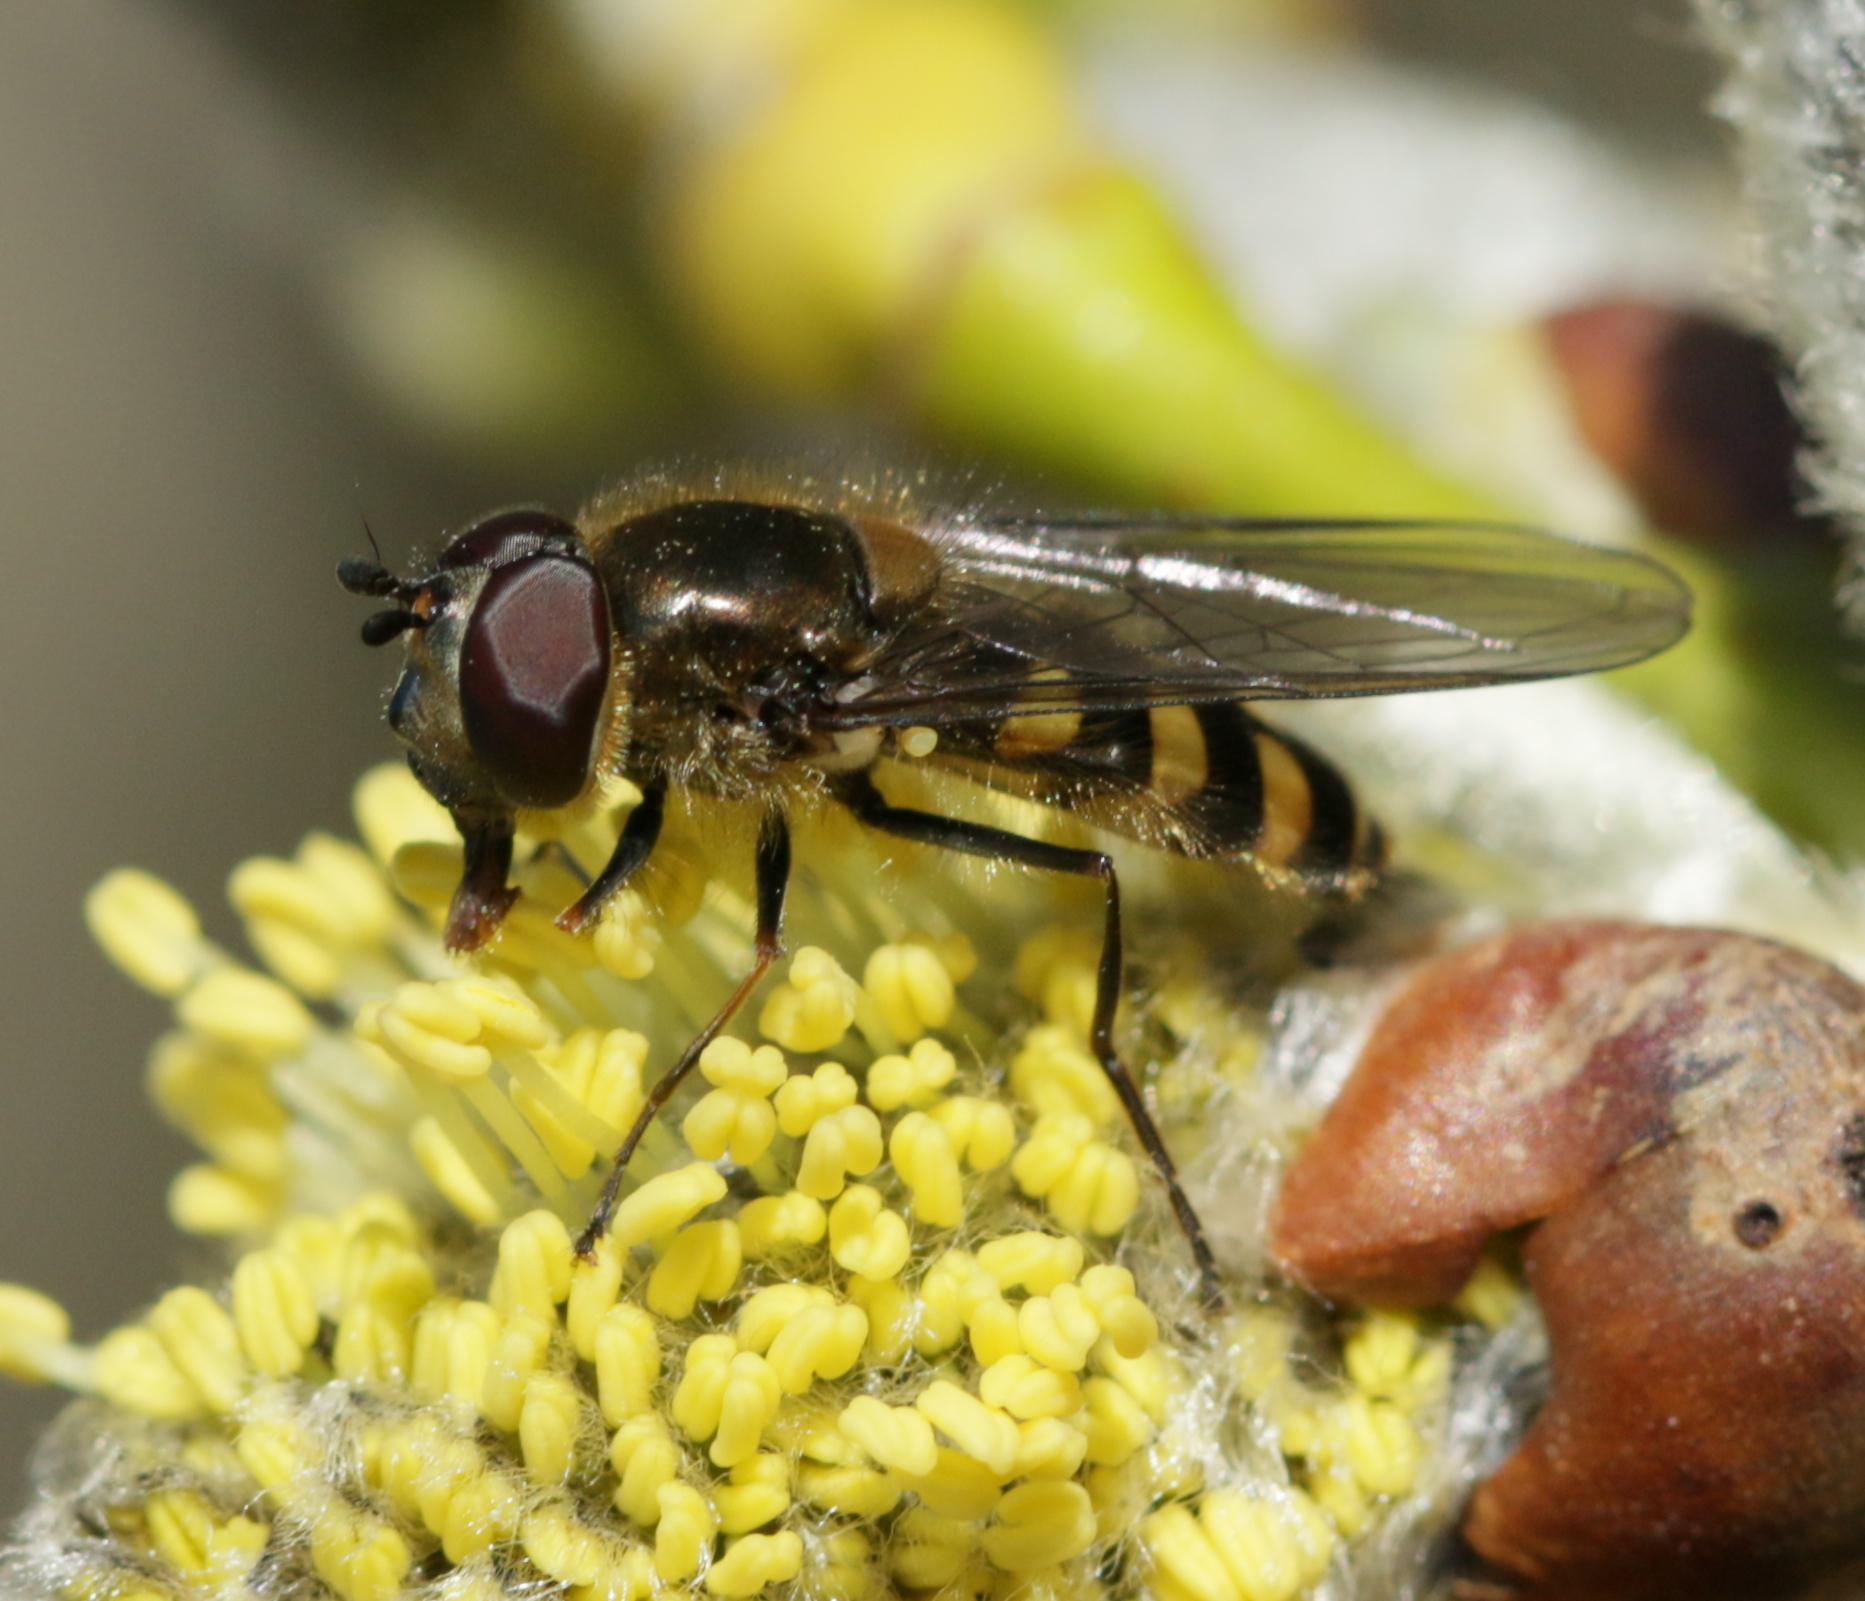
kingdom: Animalia
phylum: Arthropoda
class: Insecta
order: Diptera
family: Syrphidae
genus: Melangyna
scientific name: Melangyna lasiophthalma
